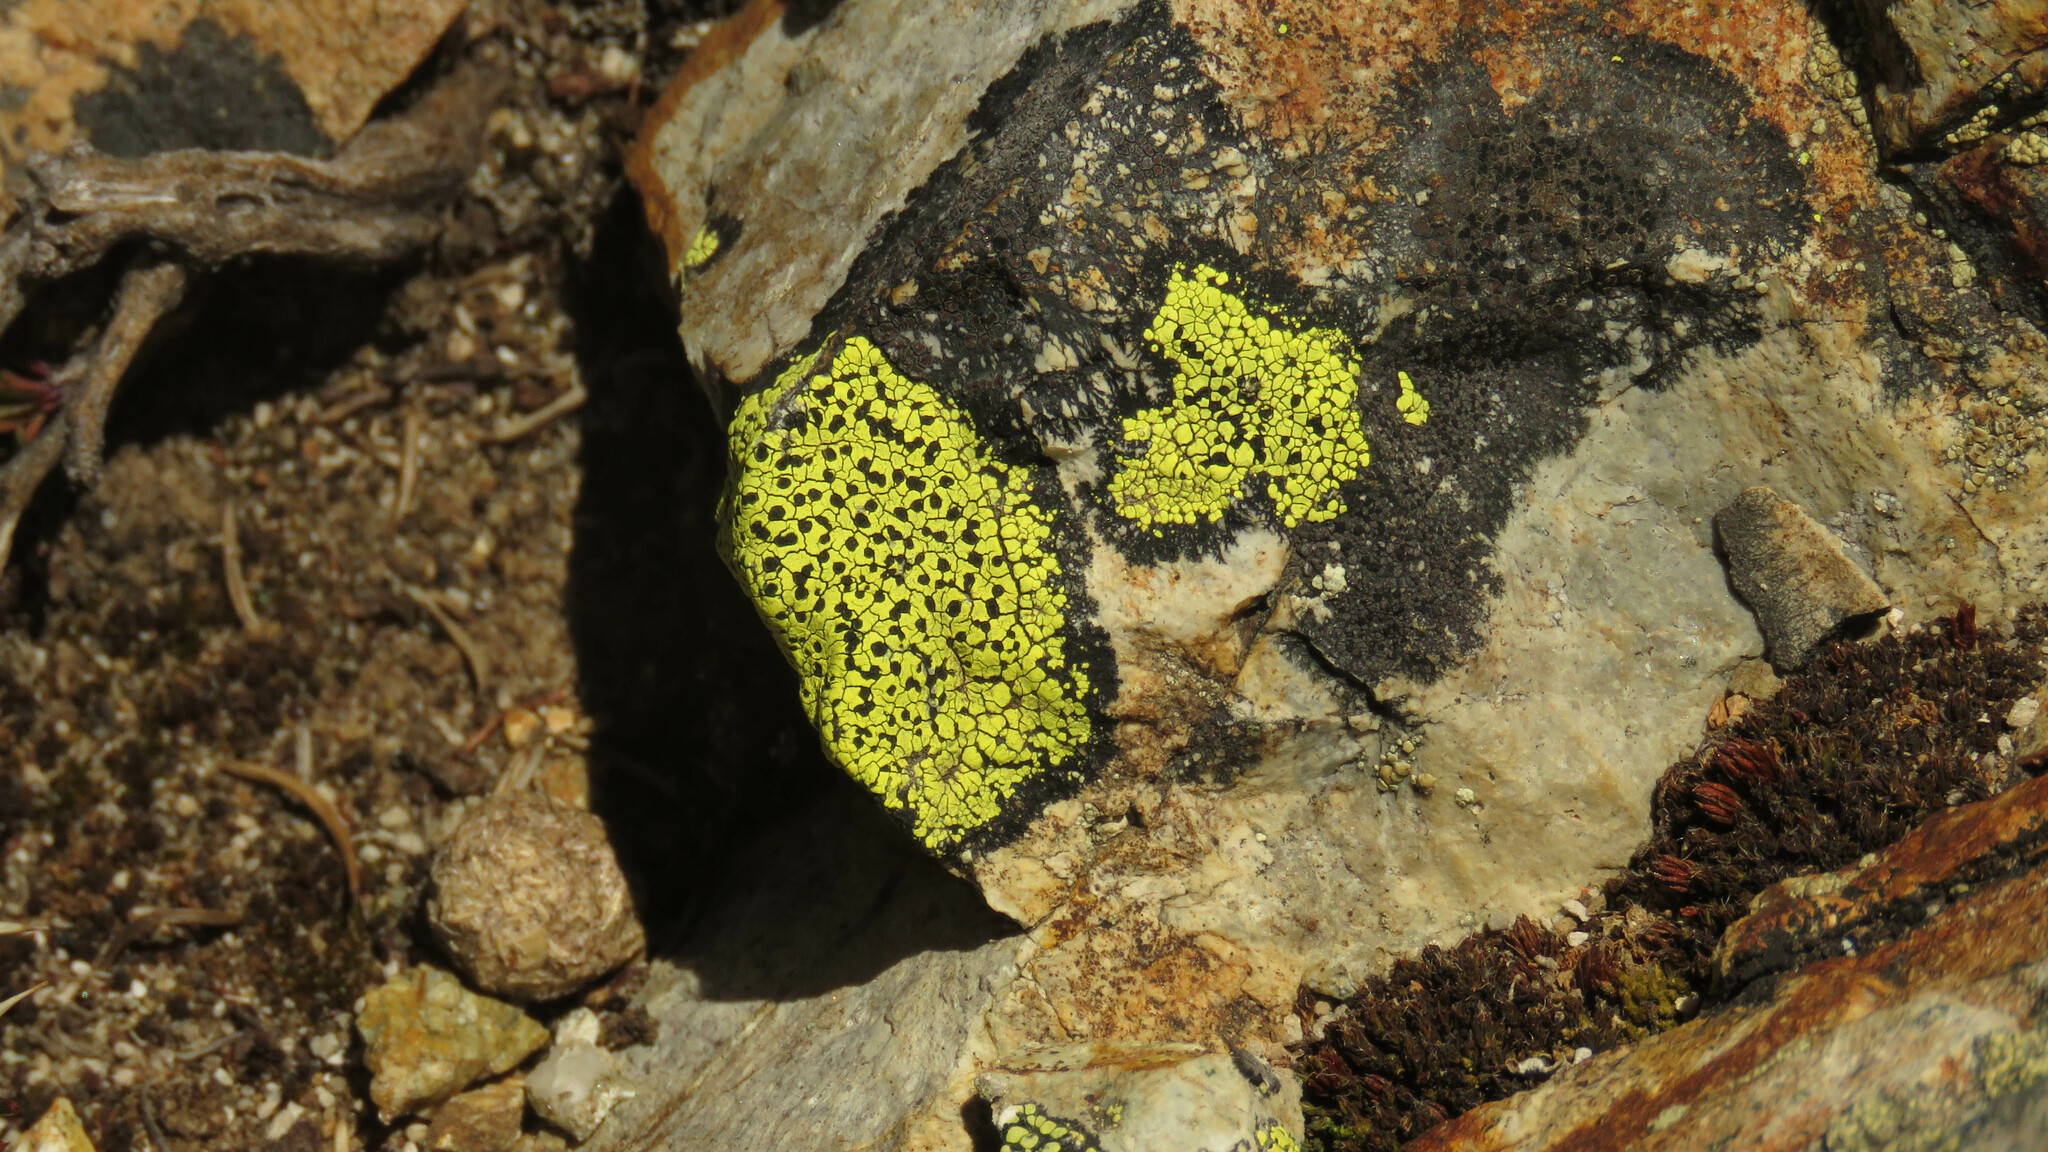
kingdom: Fungi
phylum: Ascomycota
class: Lecanoromycetes
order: Rhizocarpales
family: Rhizocarpaceae
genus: Rhizocarpon
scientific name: Rhizocarpon geographicum
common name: Yellow map lichen
